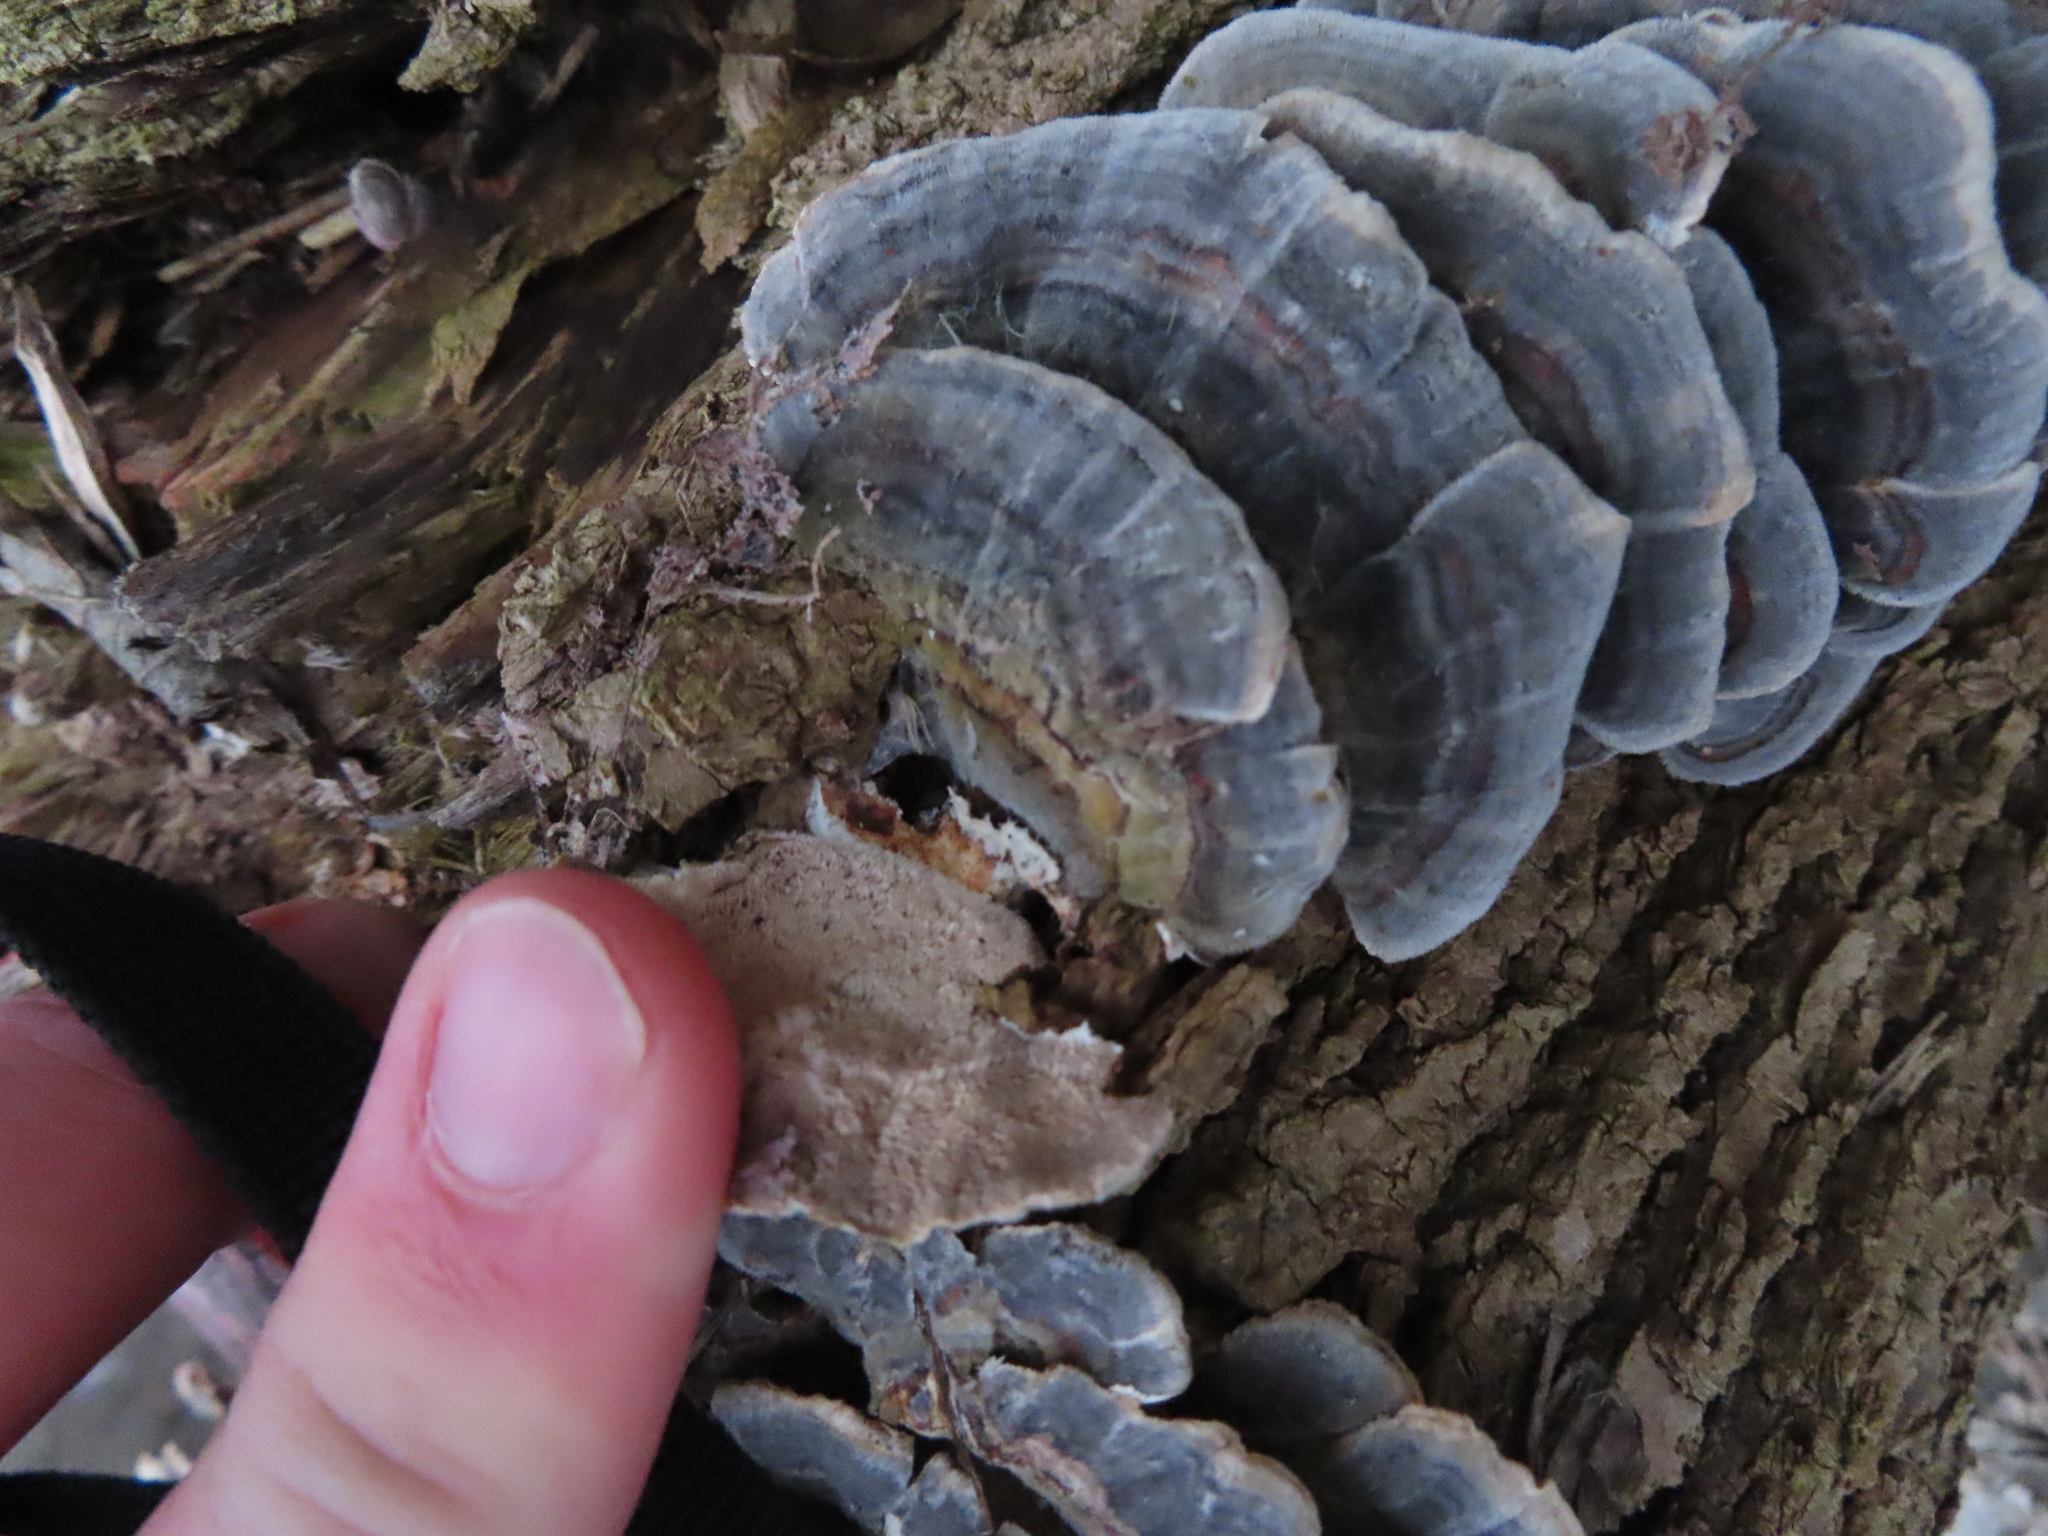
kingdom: Fungi
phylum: Basidiomycota
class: Agaricomycetes
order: Polyporales
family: Polyporaceae
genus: Trametes
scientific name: Trametes versicolor
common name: Turkeytail
